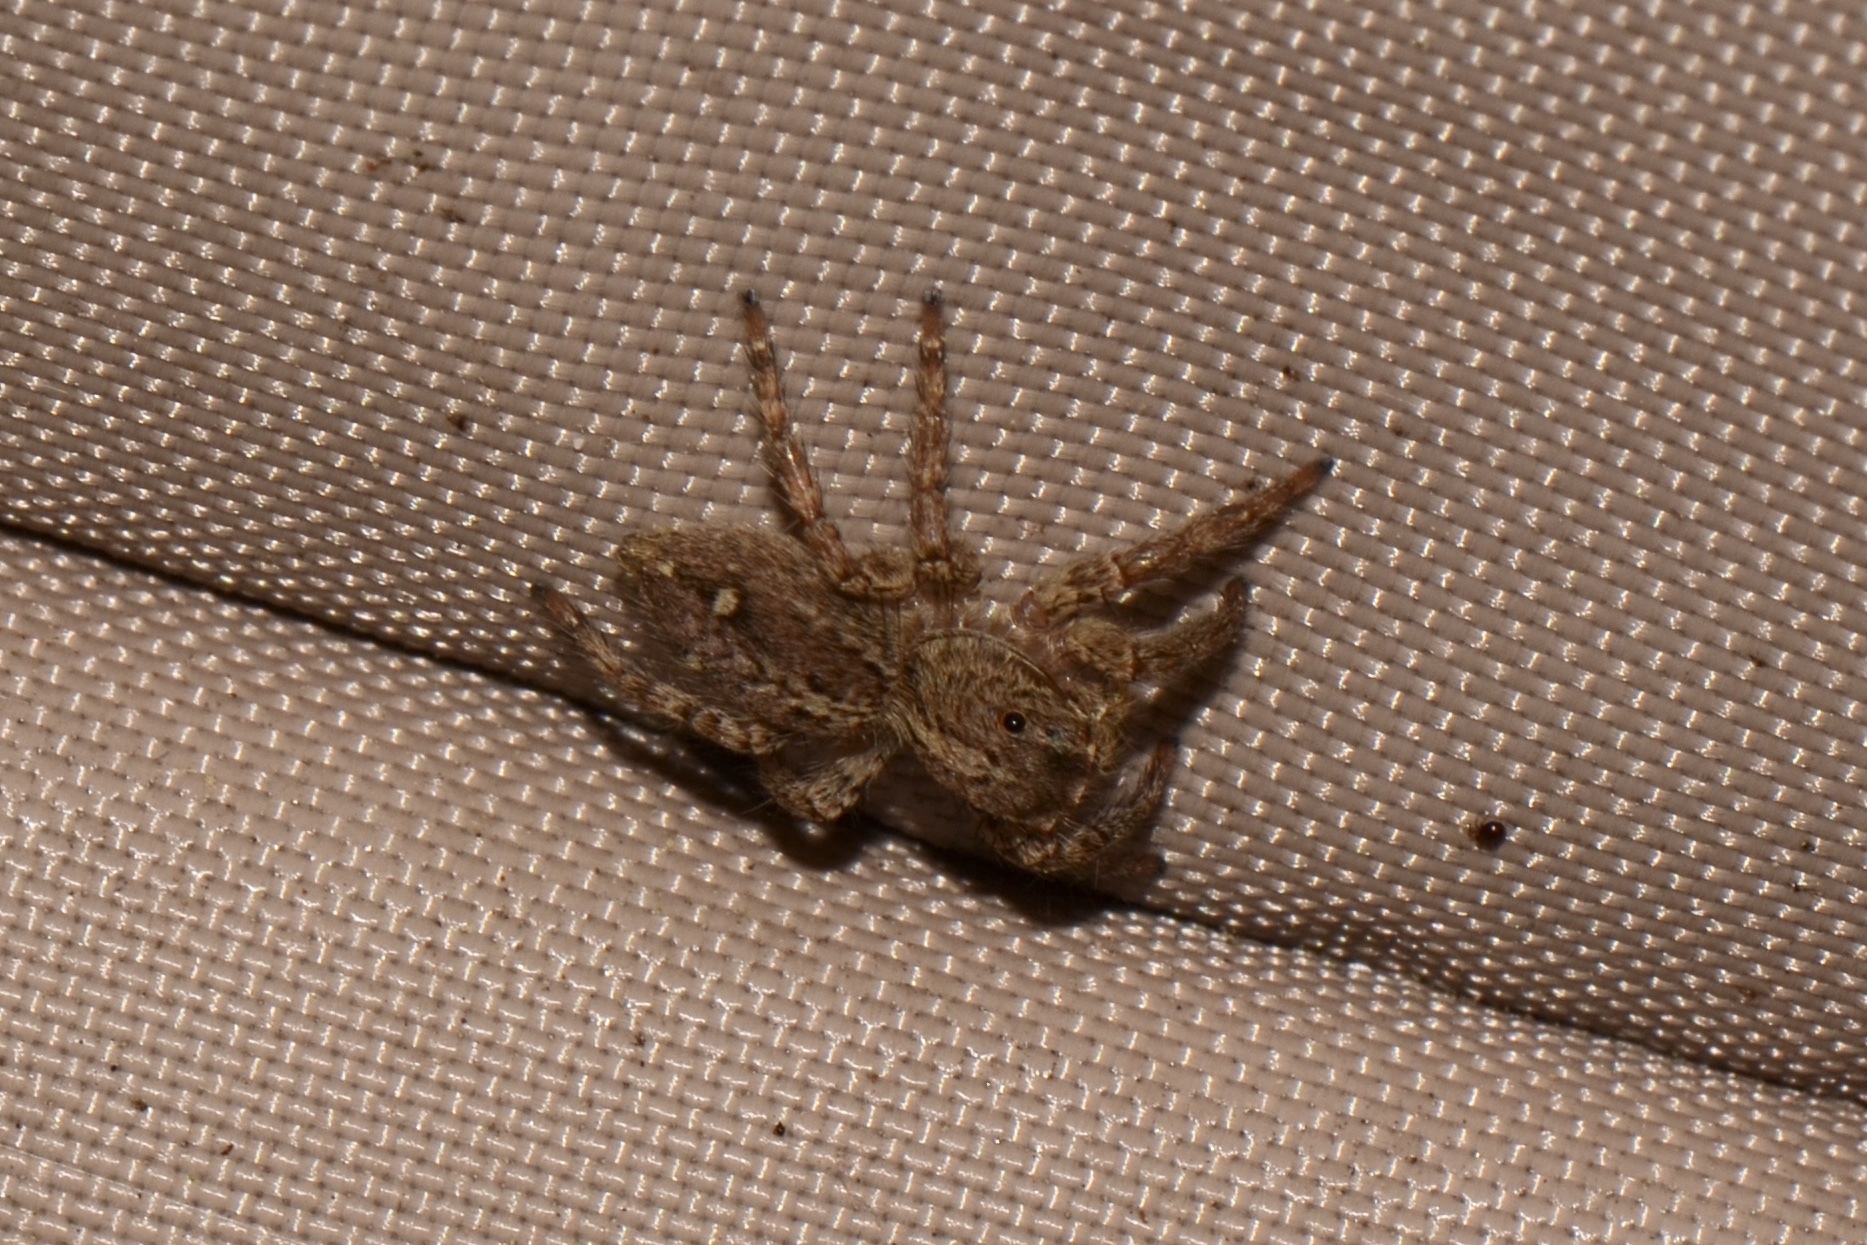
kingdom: Animalia
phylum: Arthropoda
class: Arachnida
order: Araneae
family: Salticidae
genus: Plexippus
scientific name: Plexippus paykulli
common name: Pantropical jumper
